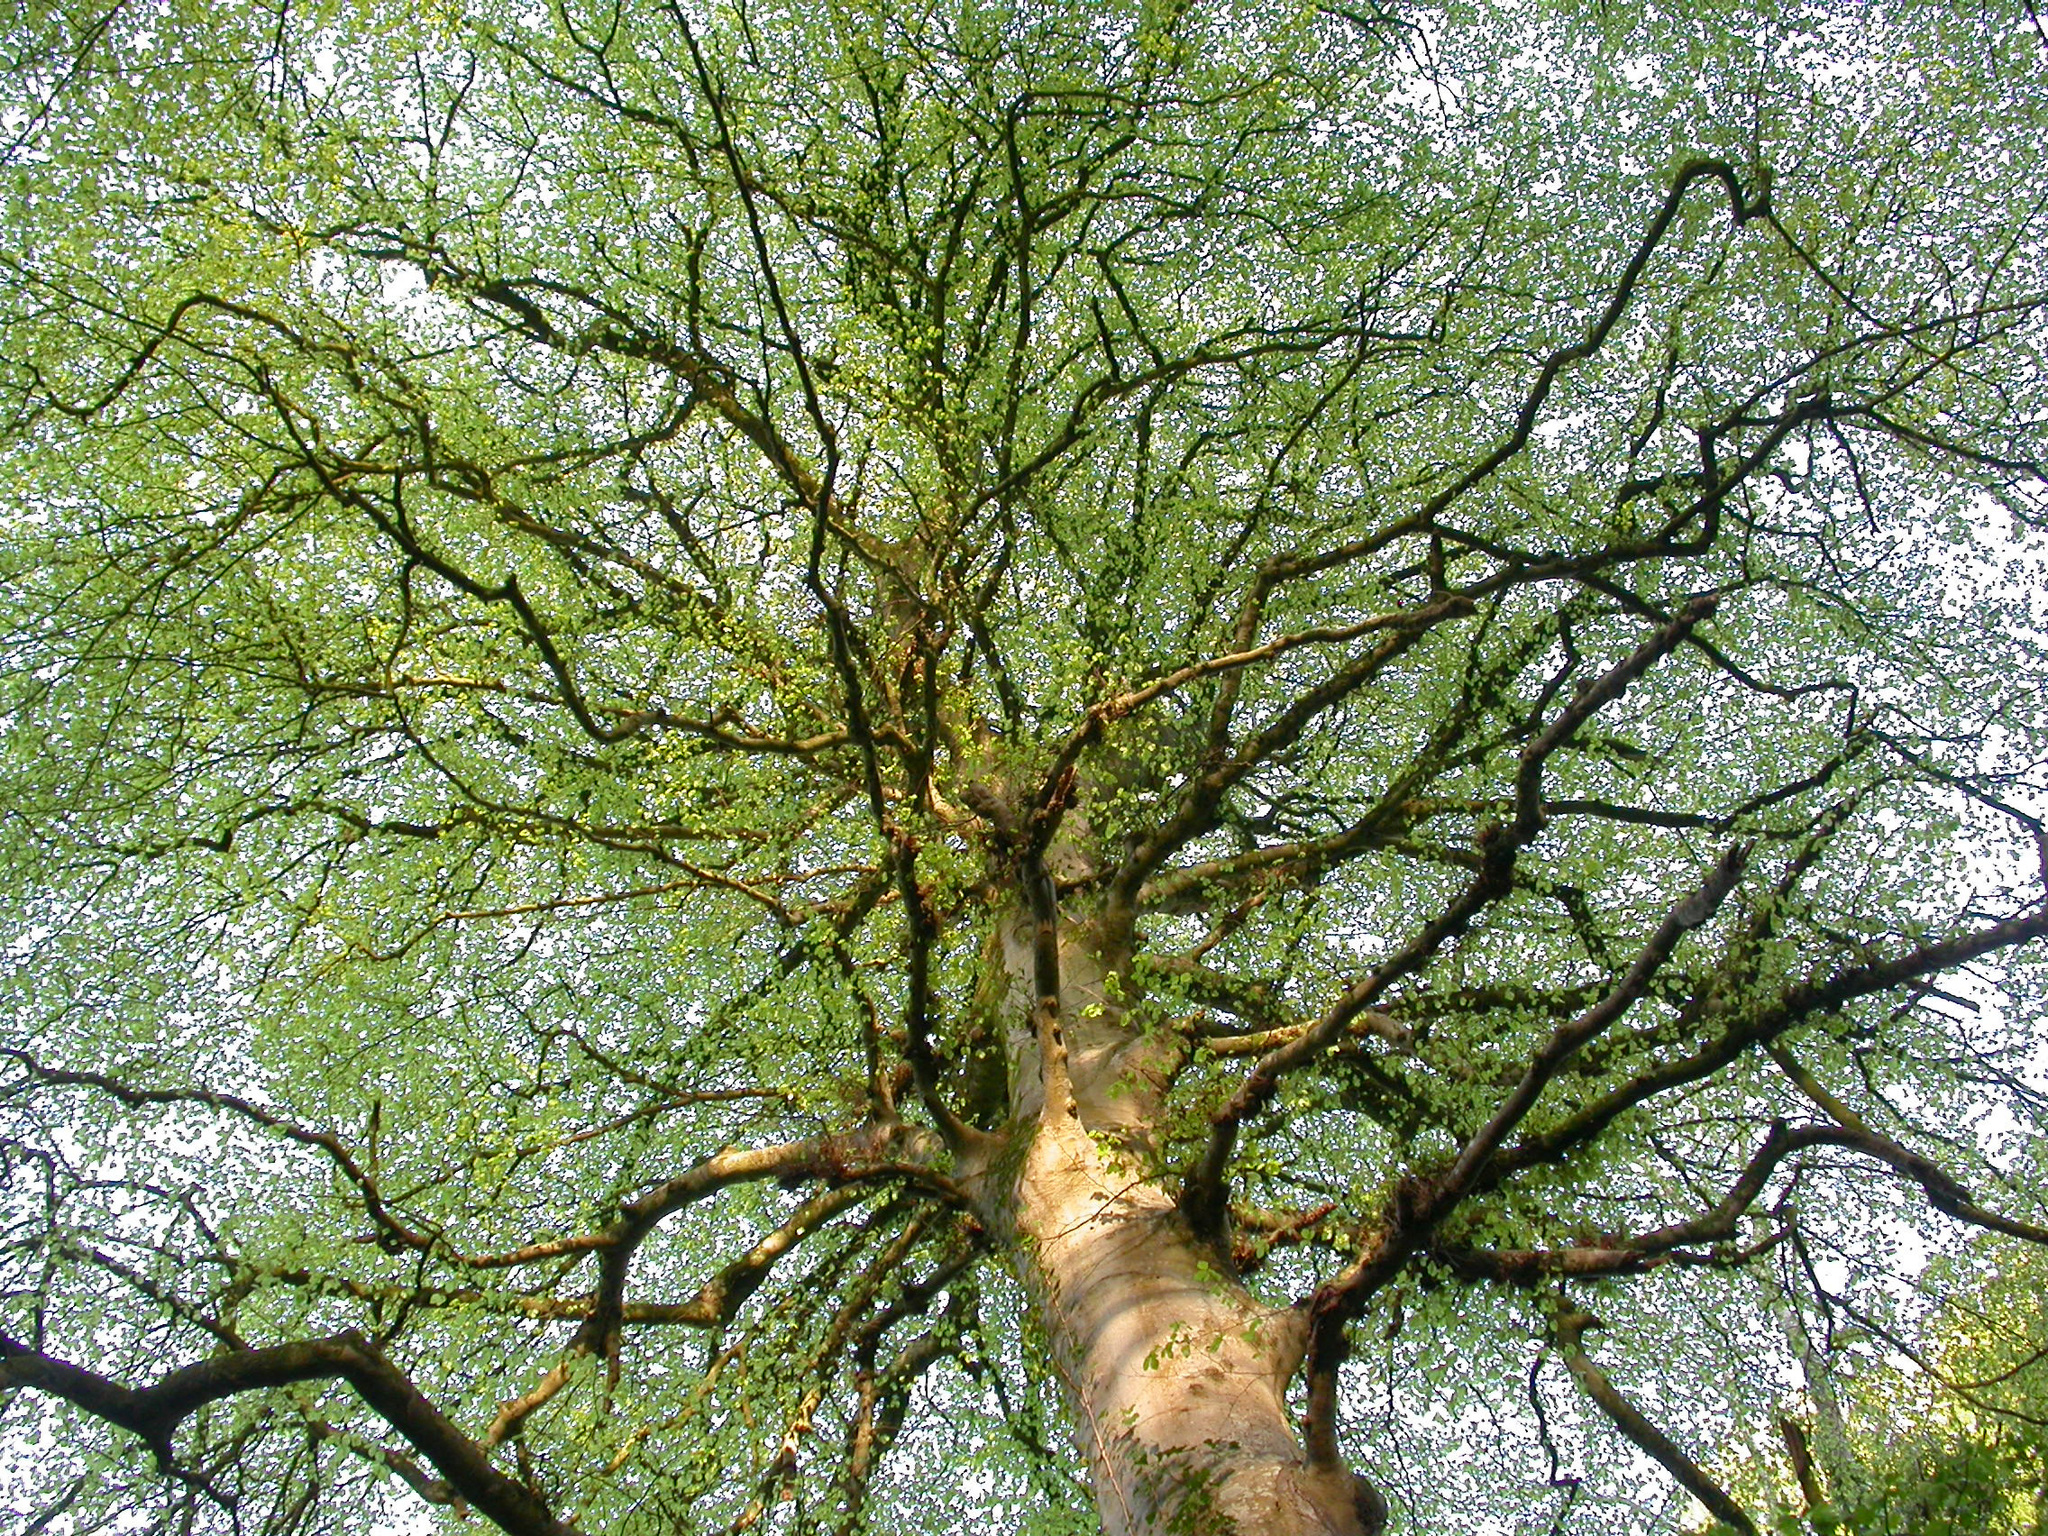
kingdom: Plantae
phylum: Tracheophyta
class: Magnoliopsida
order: Fagales
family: Fagaceae
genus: Fagus
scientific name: Fagus sylvatica
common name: Beech
